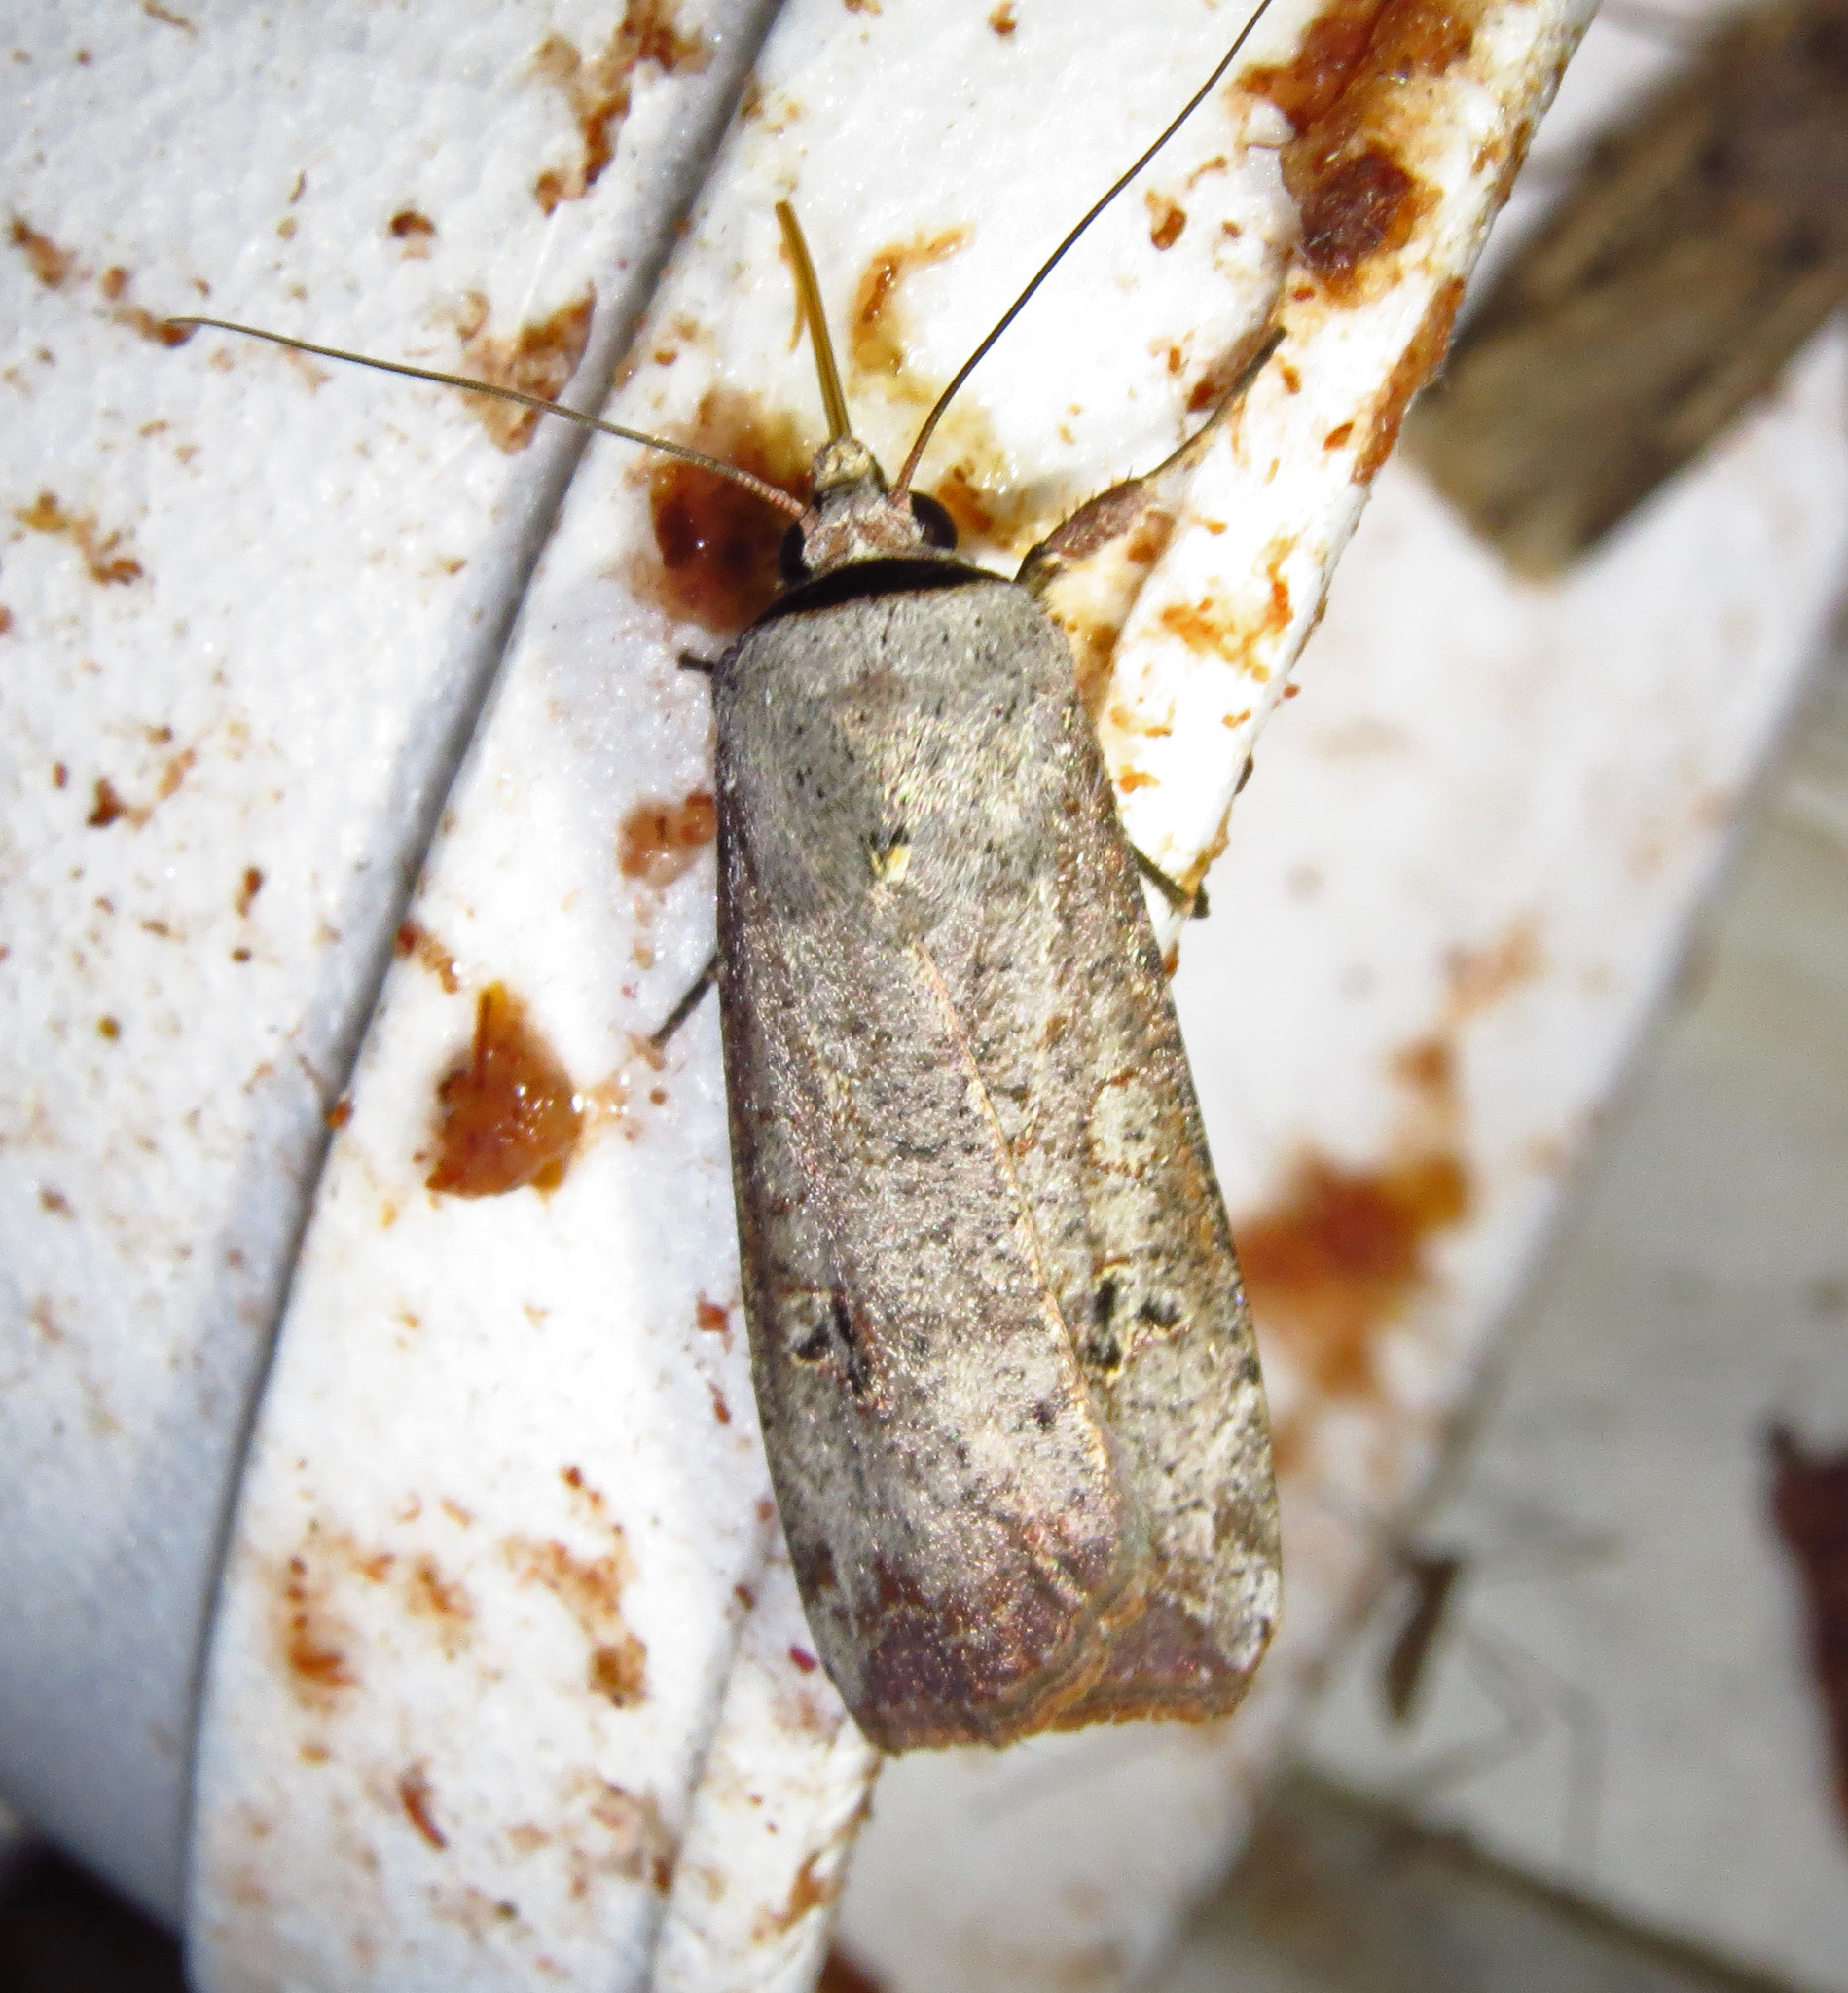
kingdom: Animalia
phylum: Arthropoda
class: Insecta
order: Lepidoptera
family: Noctuidae
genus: Anicla
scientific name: Anicla infecta
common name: Green cutworm
